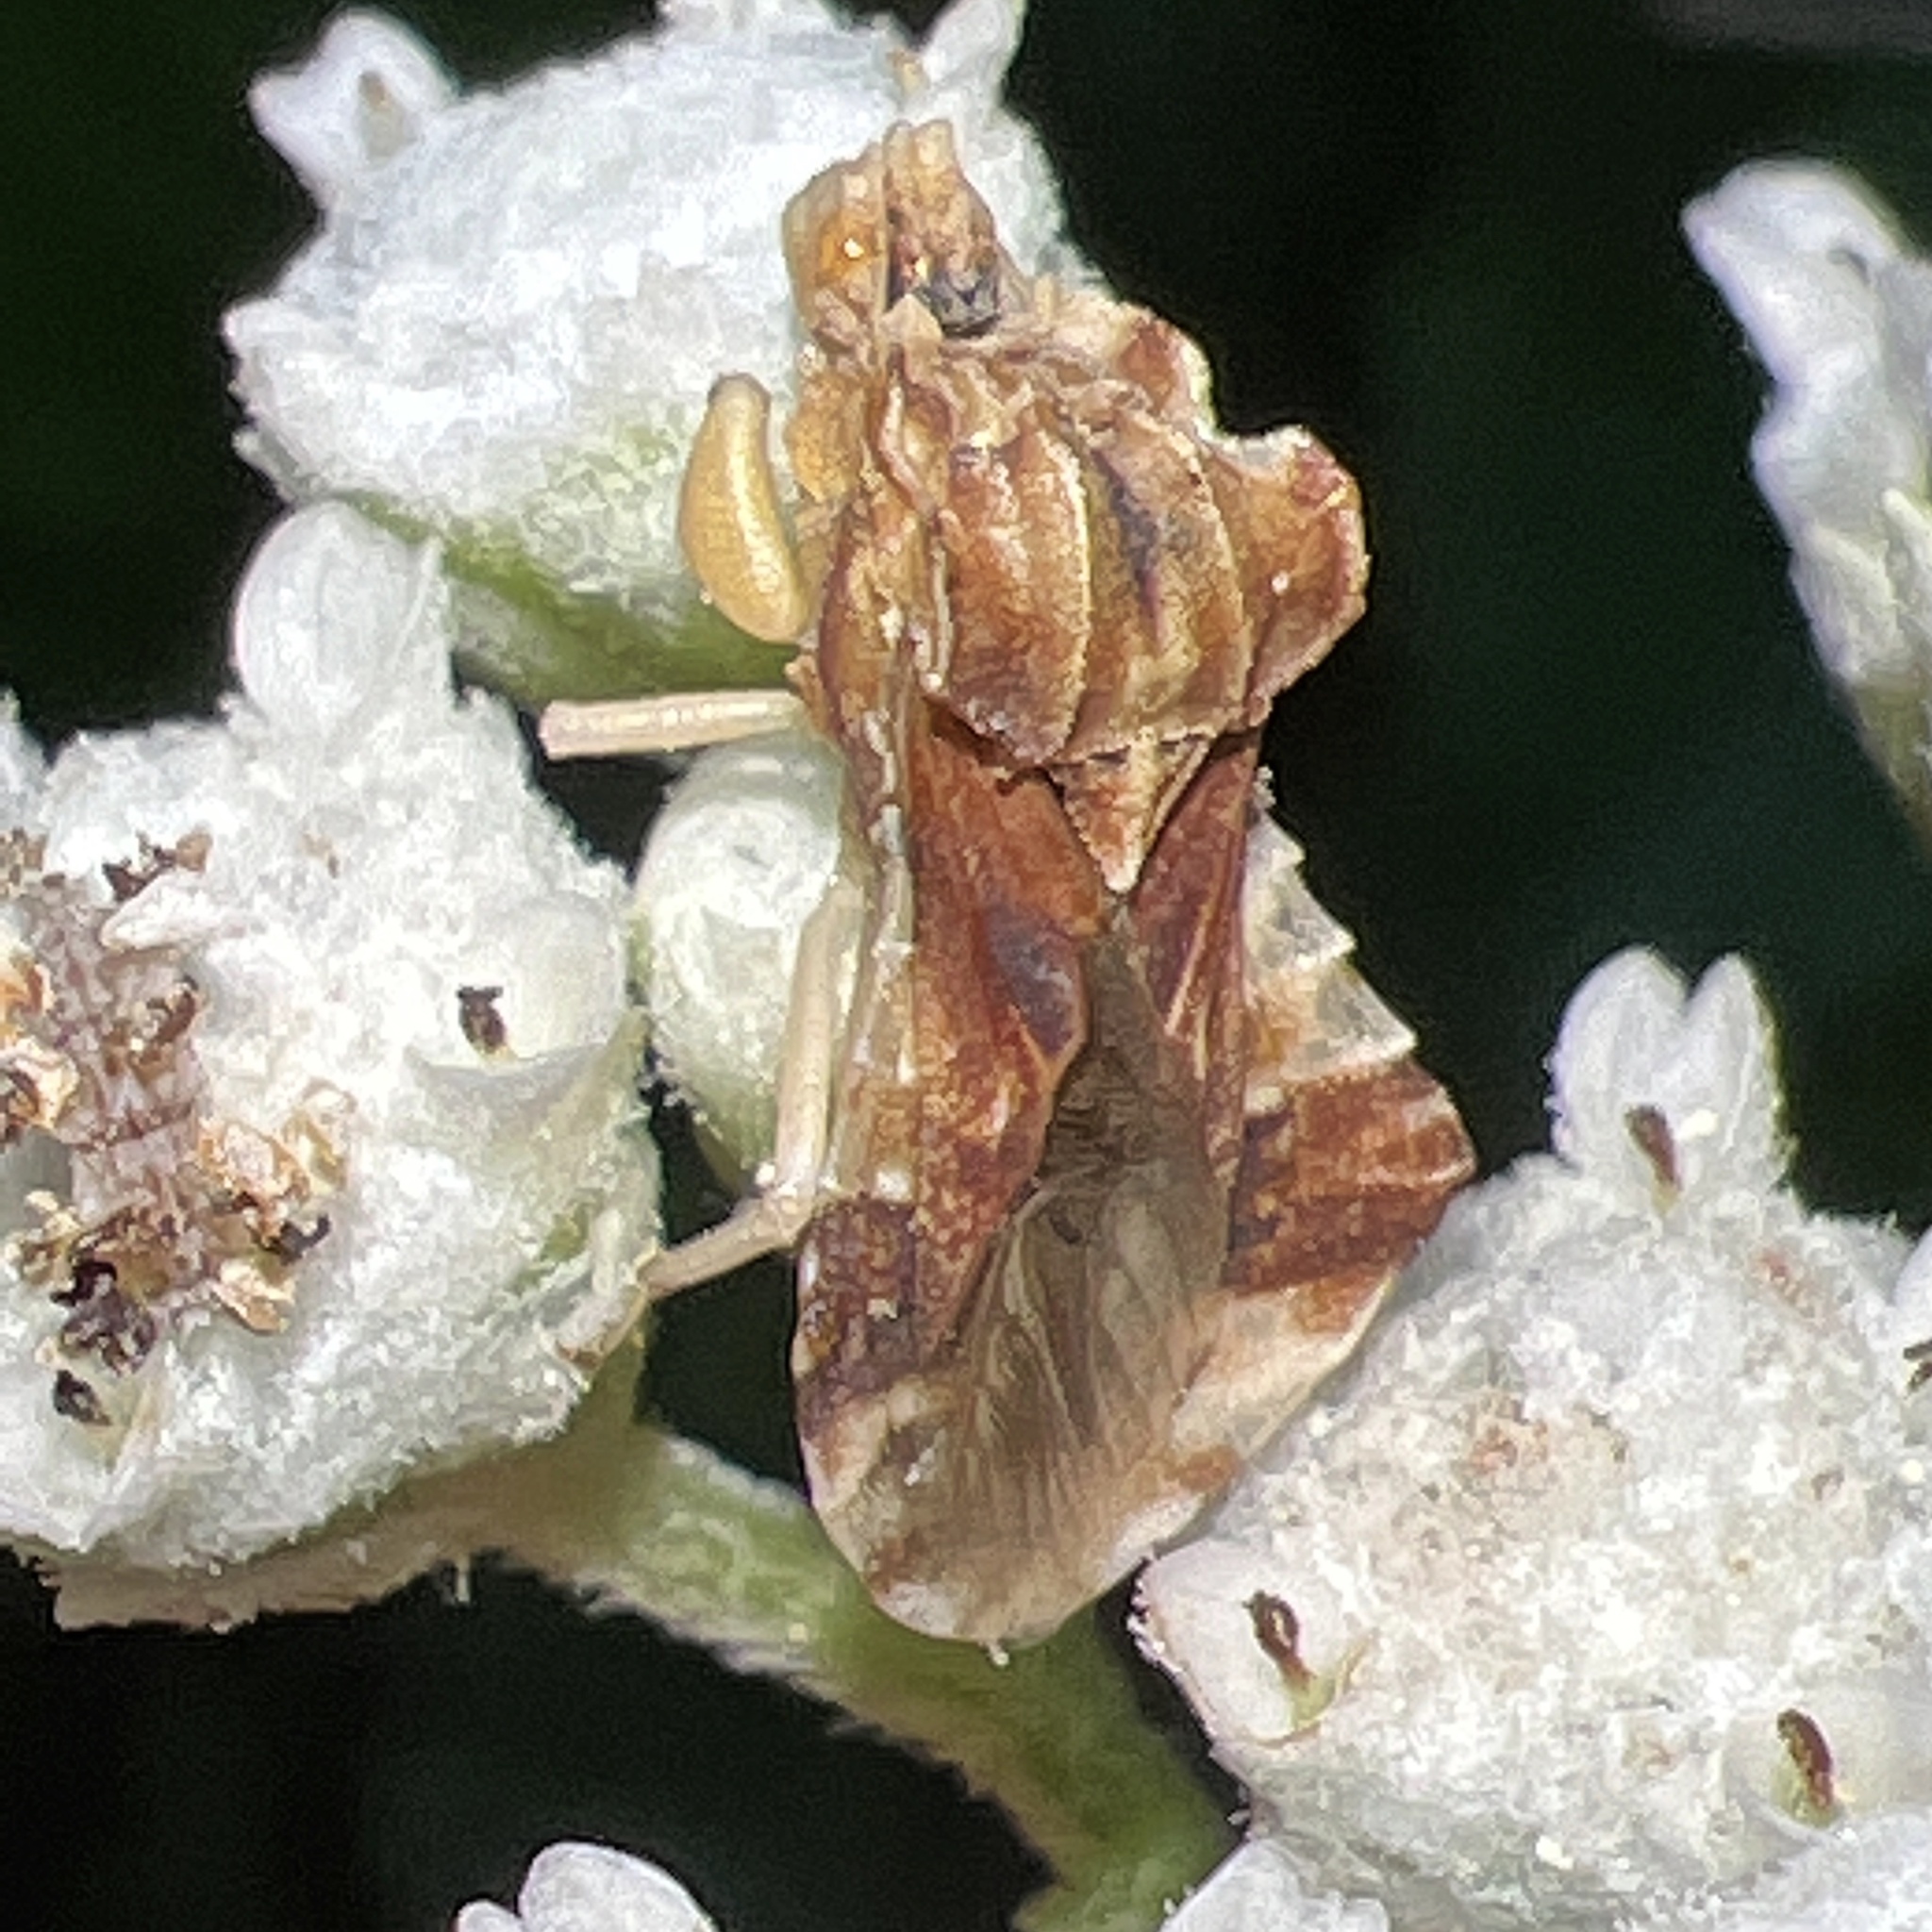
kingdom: Animalia
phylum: Arthropoda
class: Insecta
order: Hemiptera
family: Reduviidae
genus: Phymata
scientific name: Phymata fasciata
